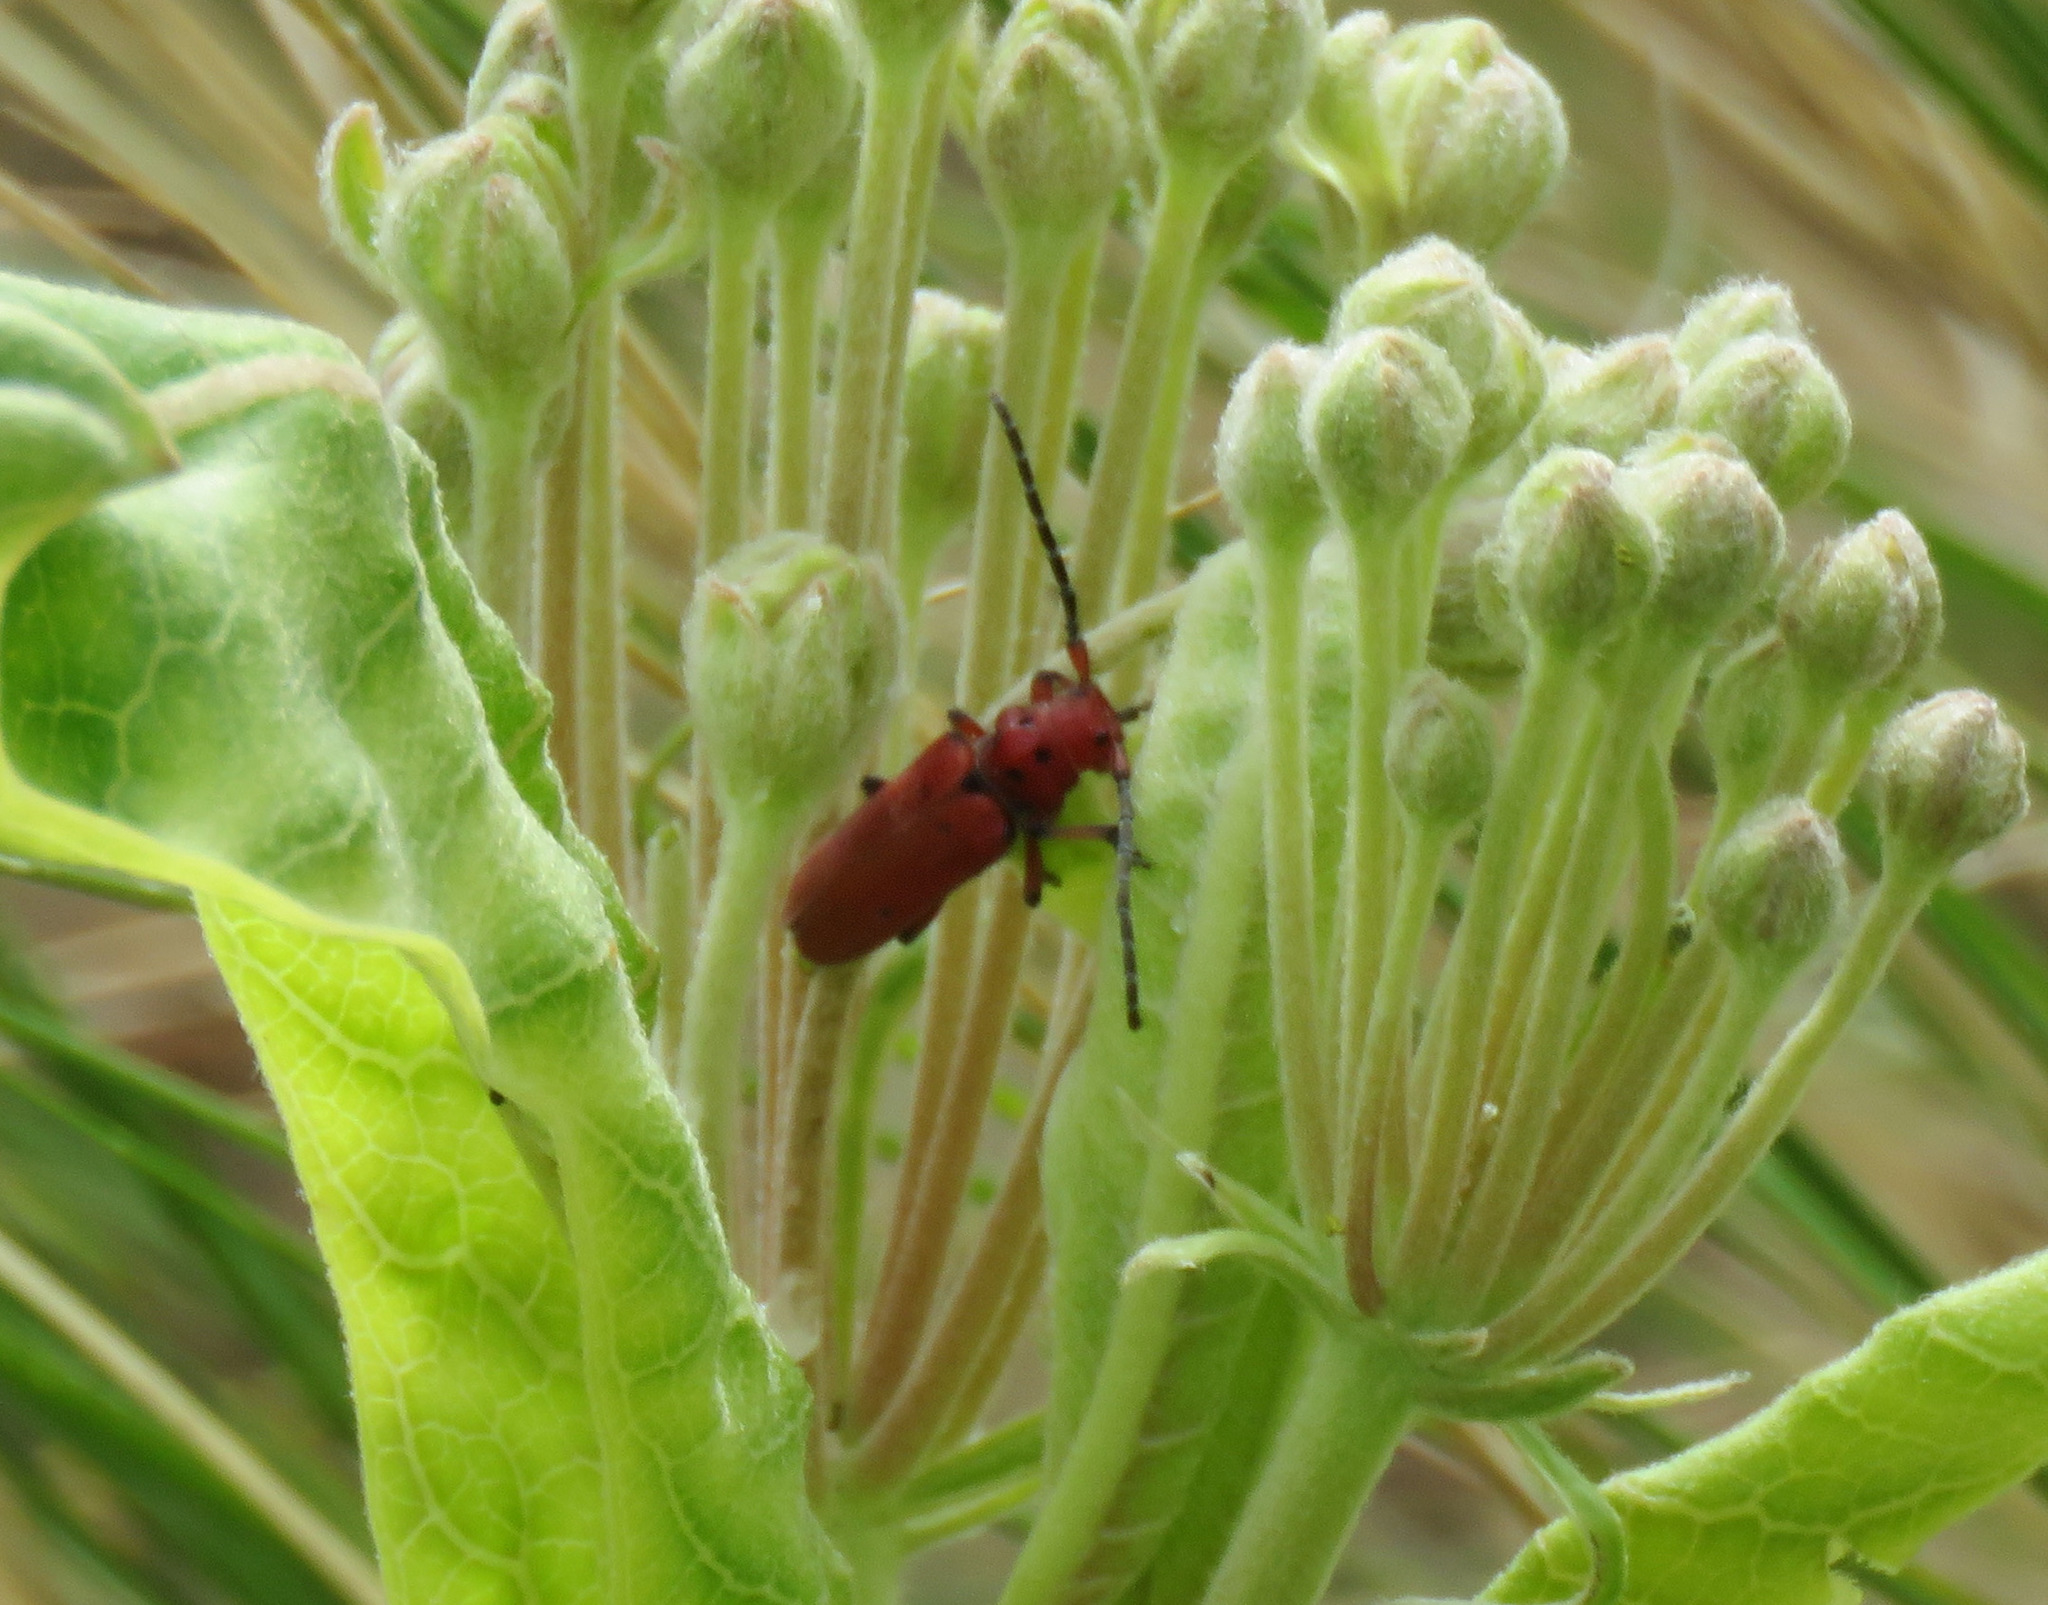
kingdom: Animalia
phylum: Arthropoda
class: Insecta
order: Coleoptera
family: Cerambycidae
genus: Tetraopes
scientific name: Tetraopes femoratus
